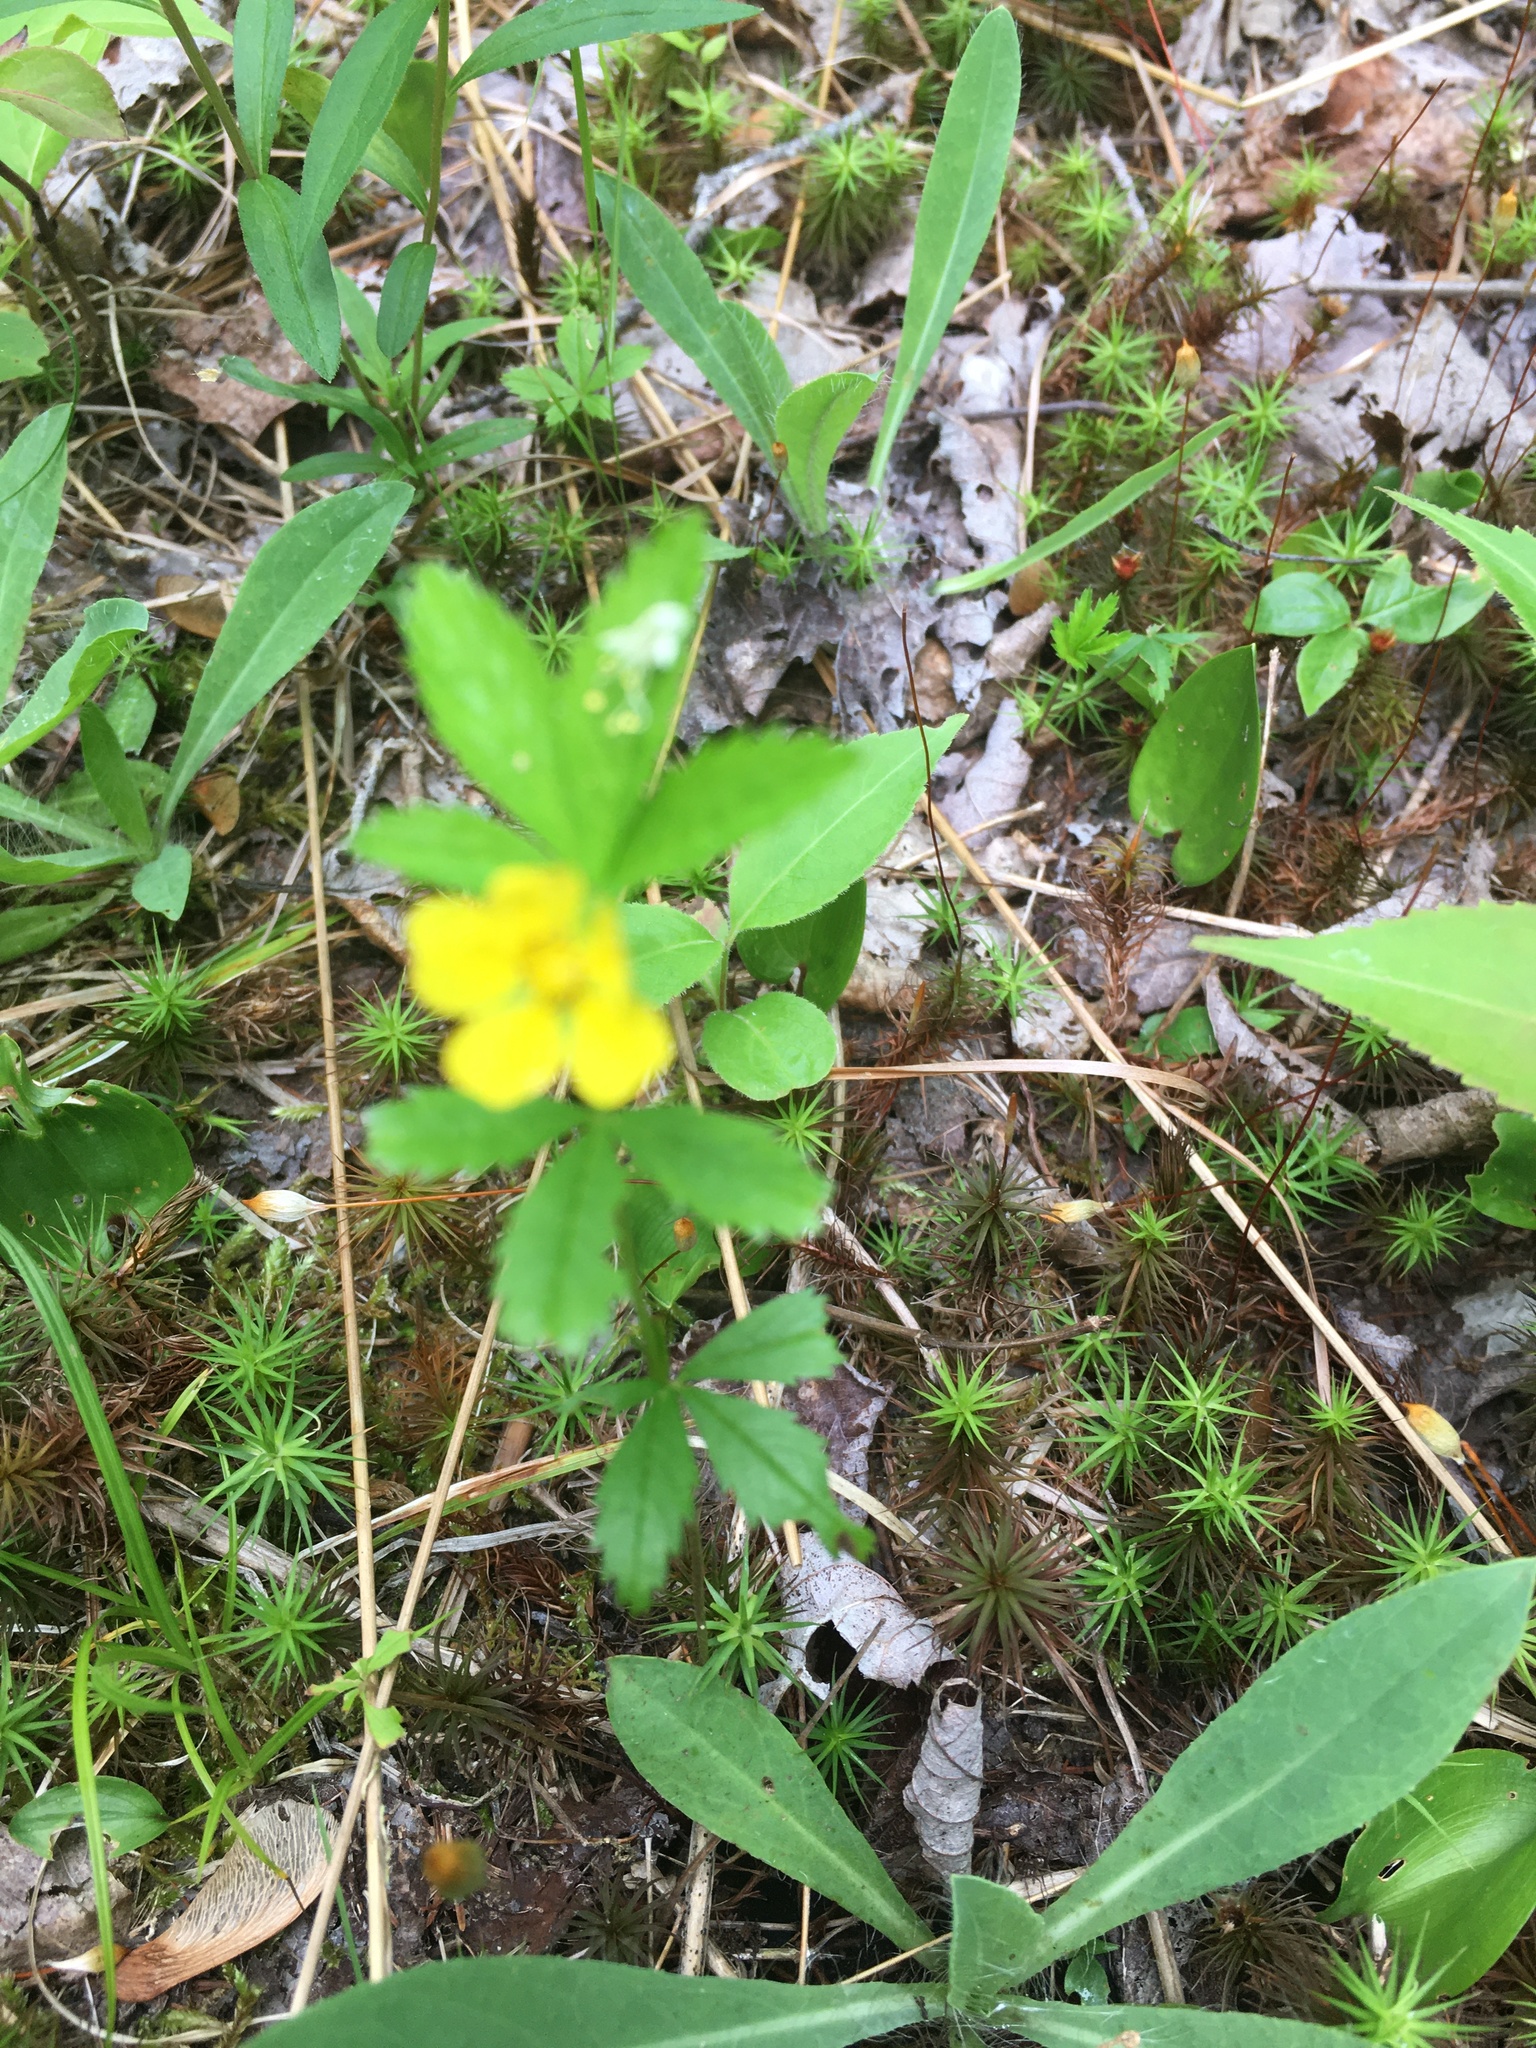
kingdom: Plantae
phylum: Tracheophyta
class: Magnoliopsida
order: Rosales
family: Rosaceae
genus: Potentilla
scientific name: Potentilla simplex
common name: Old field cinquefoil
